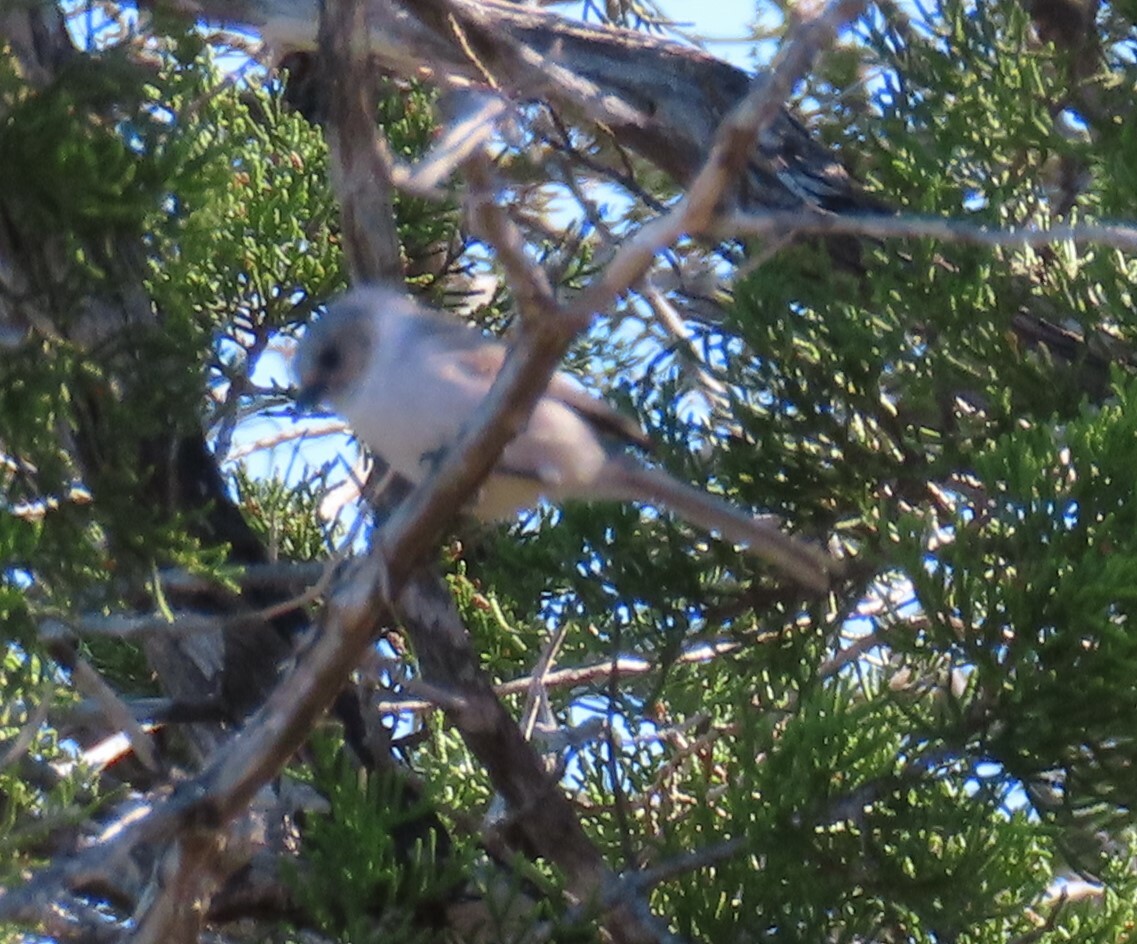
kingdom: Animalia
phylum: Chordata
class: Aves
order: Passeriformes
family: Aegithalidae
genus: Psaltriparus
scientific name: Psaltriparus minimus
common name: American bushtit
